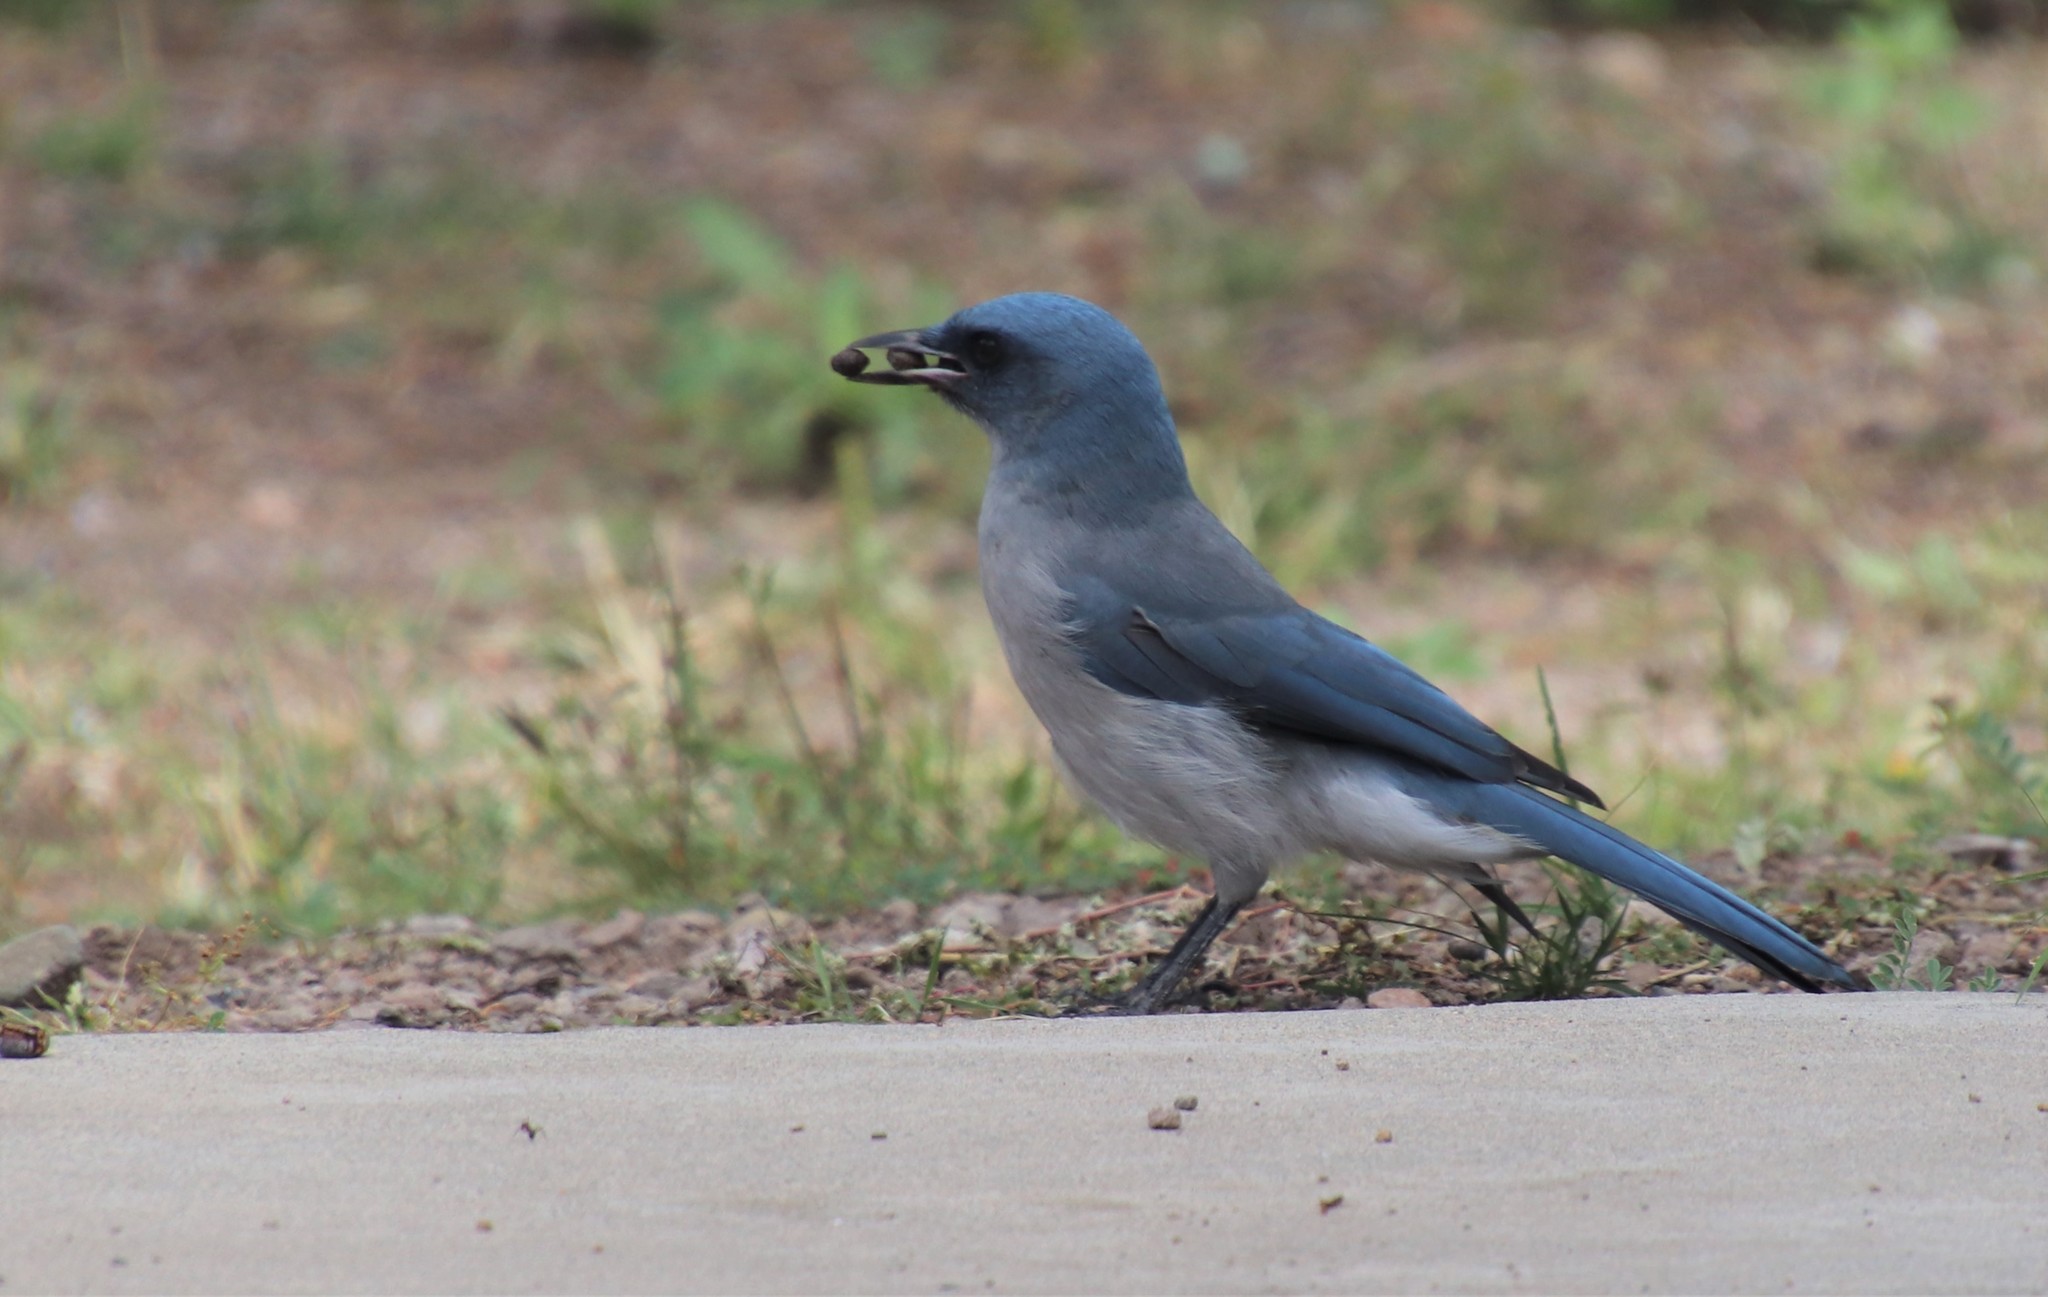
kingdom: Animalia
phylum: Chordata
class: Aves
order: Passeriformes
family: Corvidae
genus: Aphelocoma
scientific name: Aphelocoma wollweberi
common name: Mexican jay
